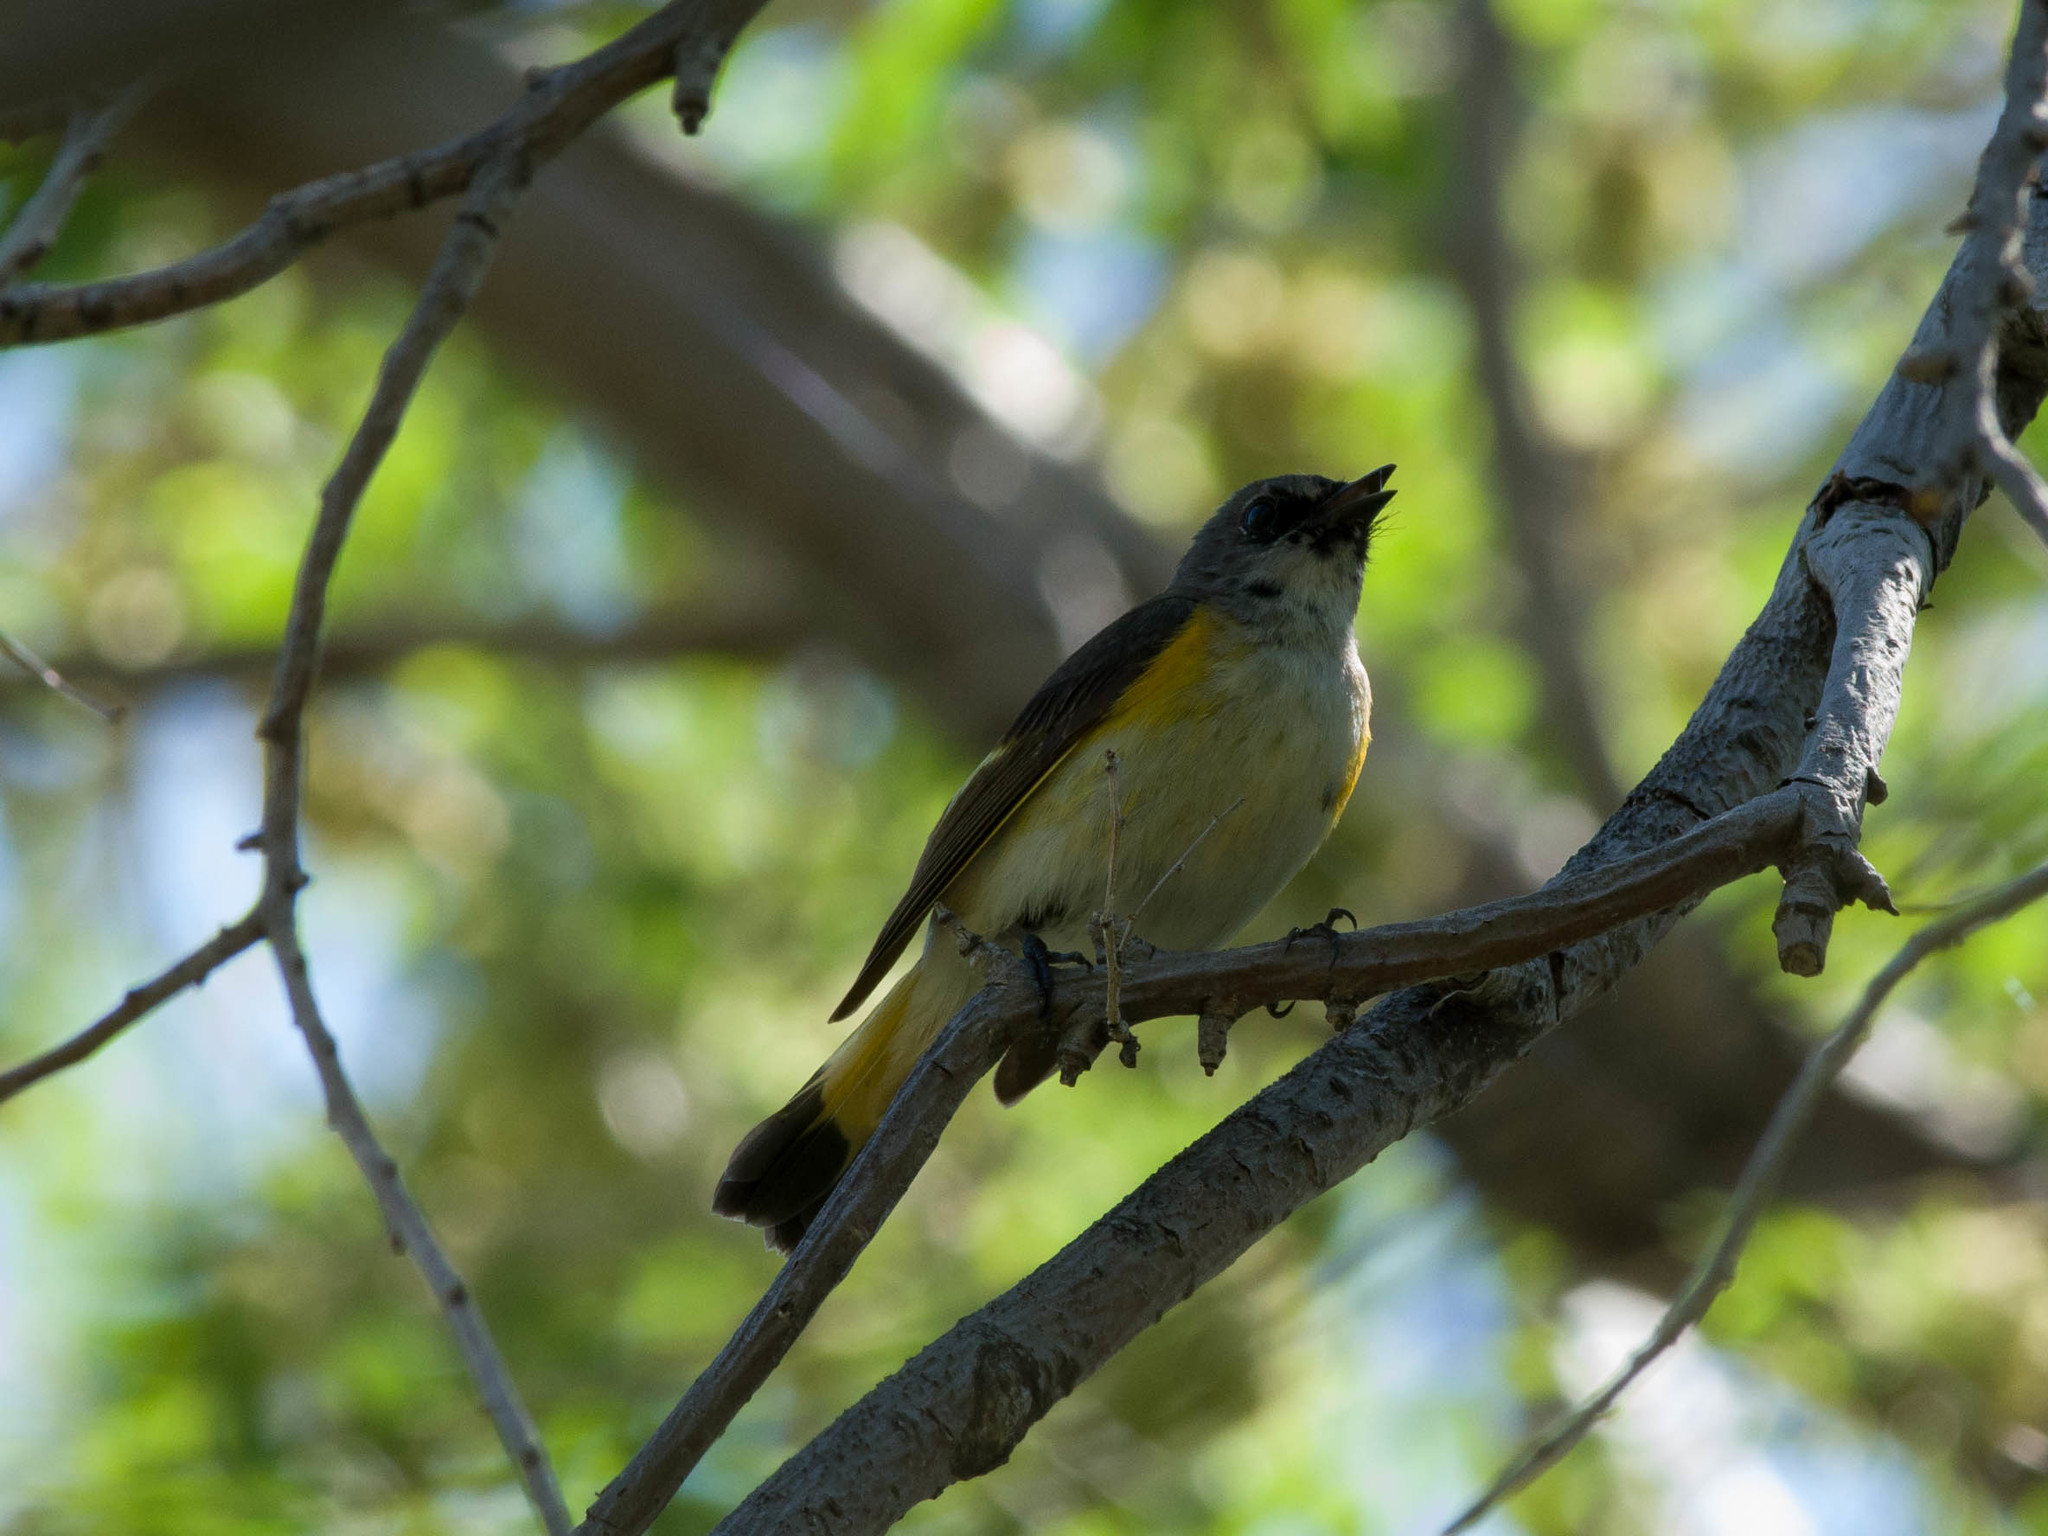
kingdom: Animalia
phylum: Chordata
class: Aves
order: Passeriformes
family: Parulidae
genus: Setophaga
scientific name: Setophaga ruticilla
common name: American redstart
